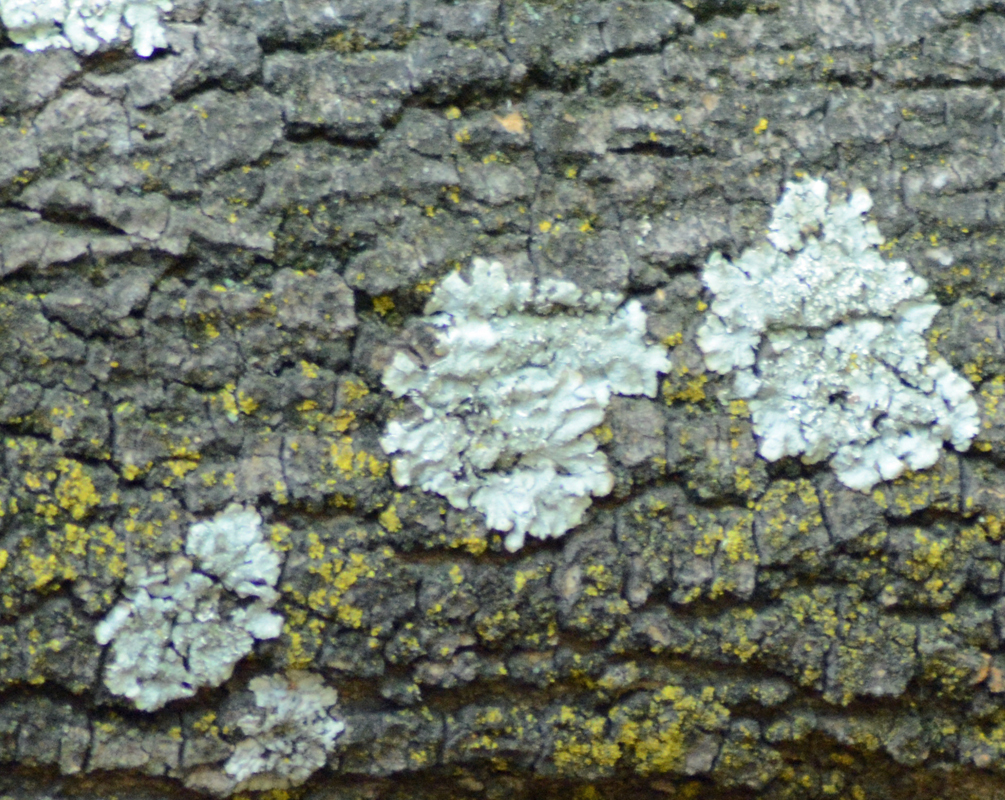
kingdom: Fungi
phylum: Ascomycota
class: Lecanoromycetes
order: Lecanorales
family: Parmeliaceae
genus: Flavopunctelia
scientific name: Flavopunctelia soredica
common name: Powder-edged speckled greenshield
